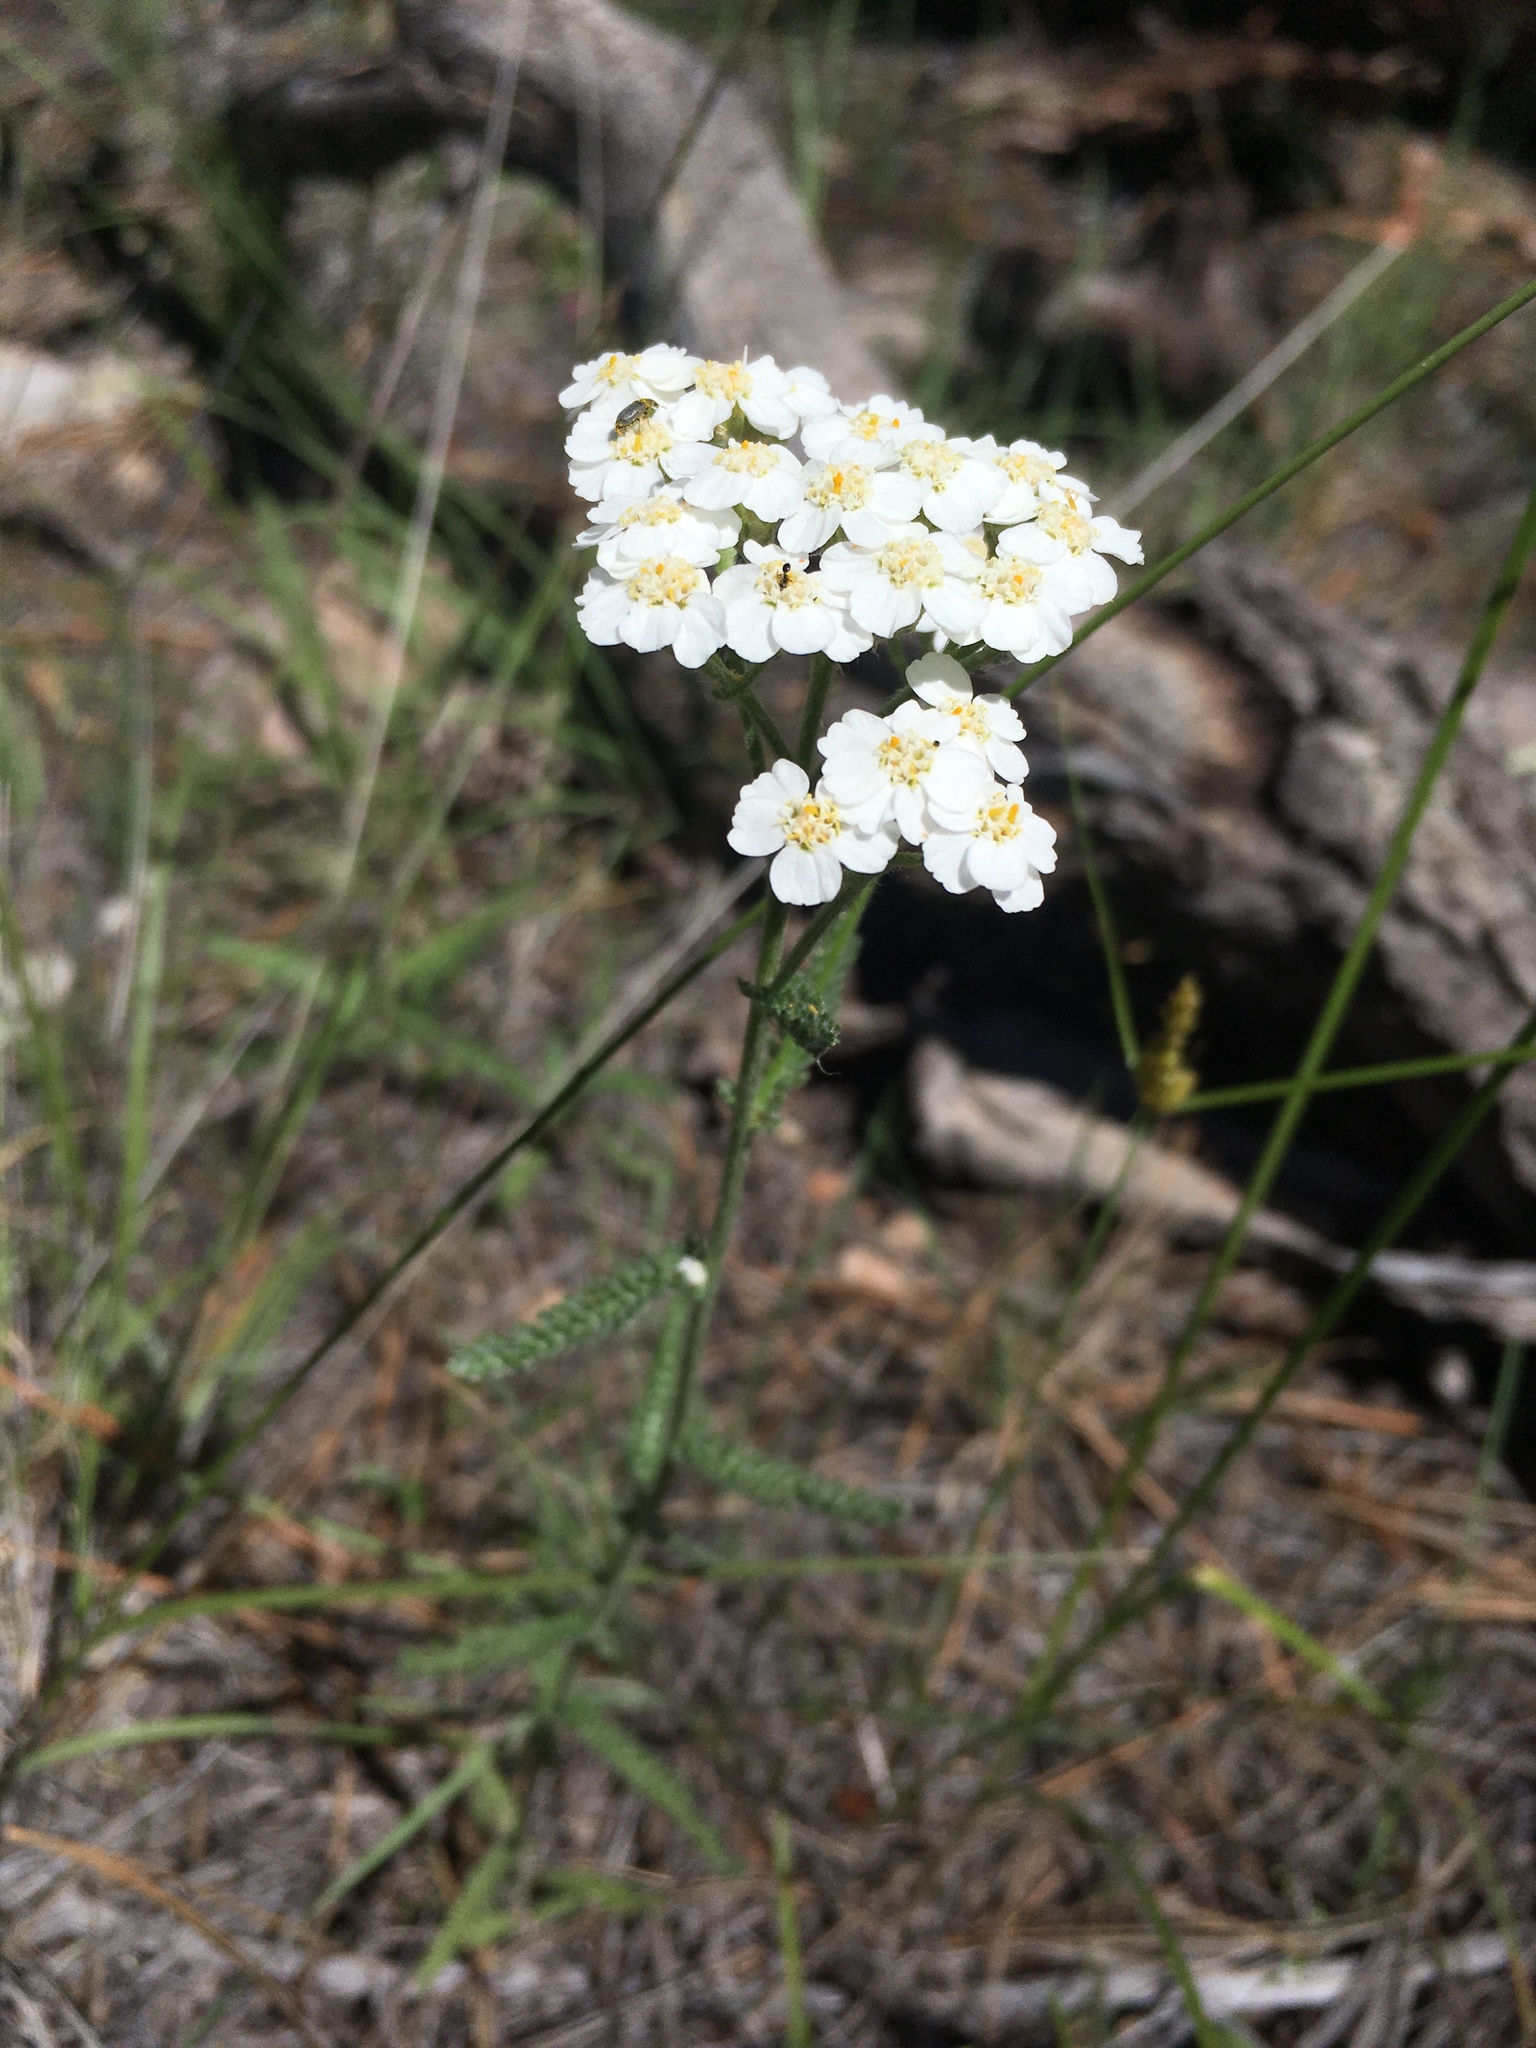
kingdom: Plantae
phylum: Tracheophyta
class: Magnoliopsida
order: Asterales
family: Asteraceae
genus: Achillea
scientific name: Achillea millefolium
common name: Yarrow
